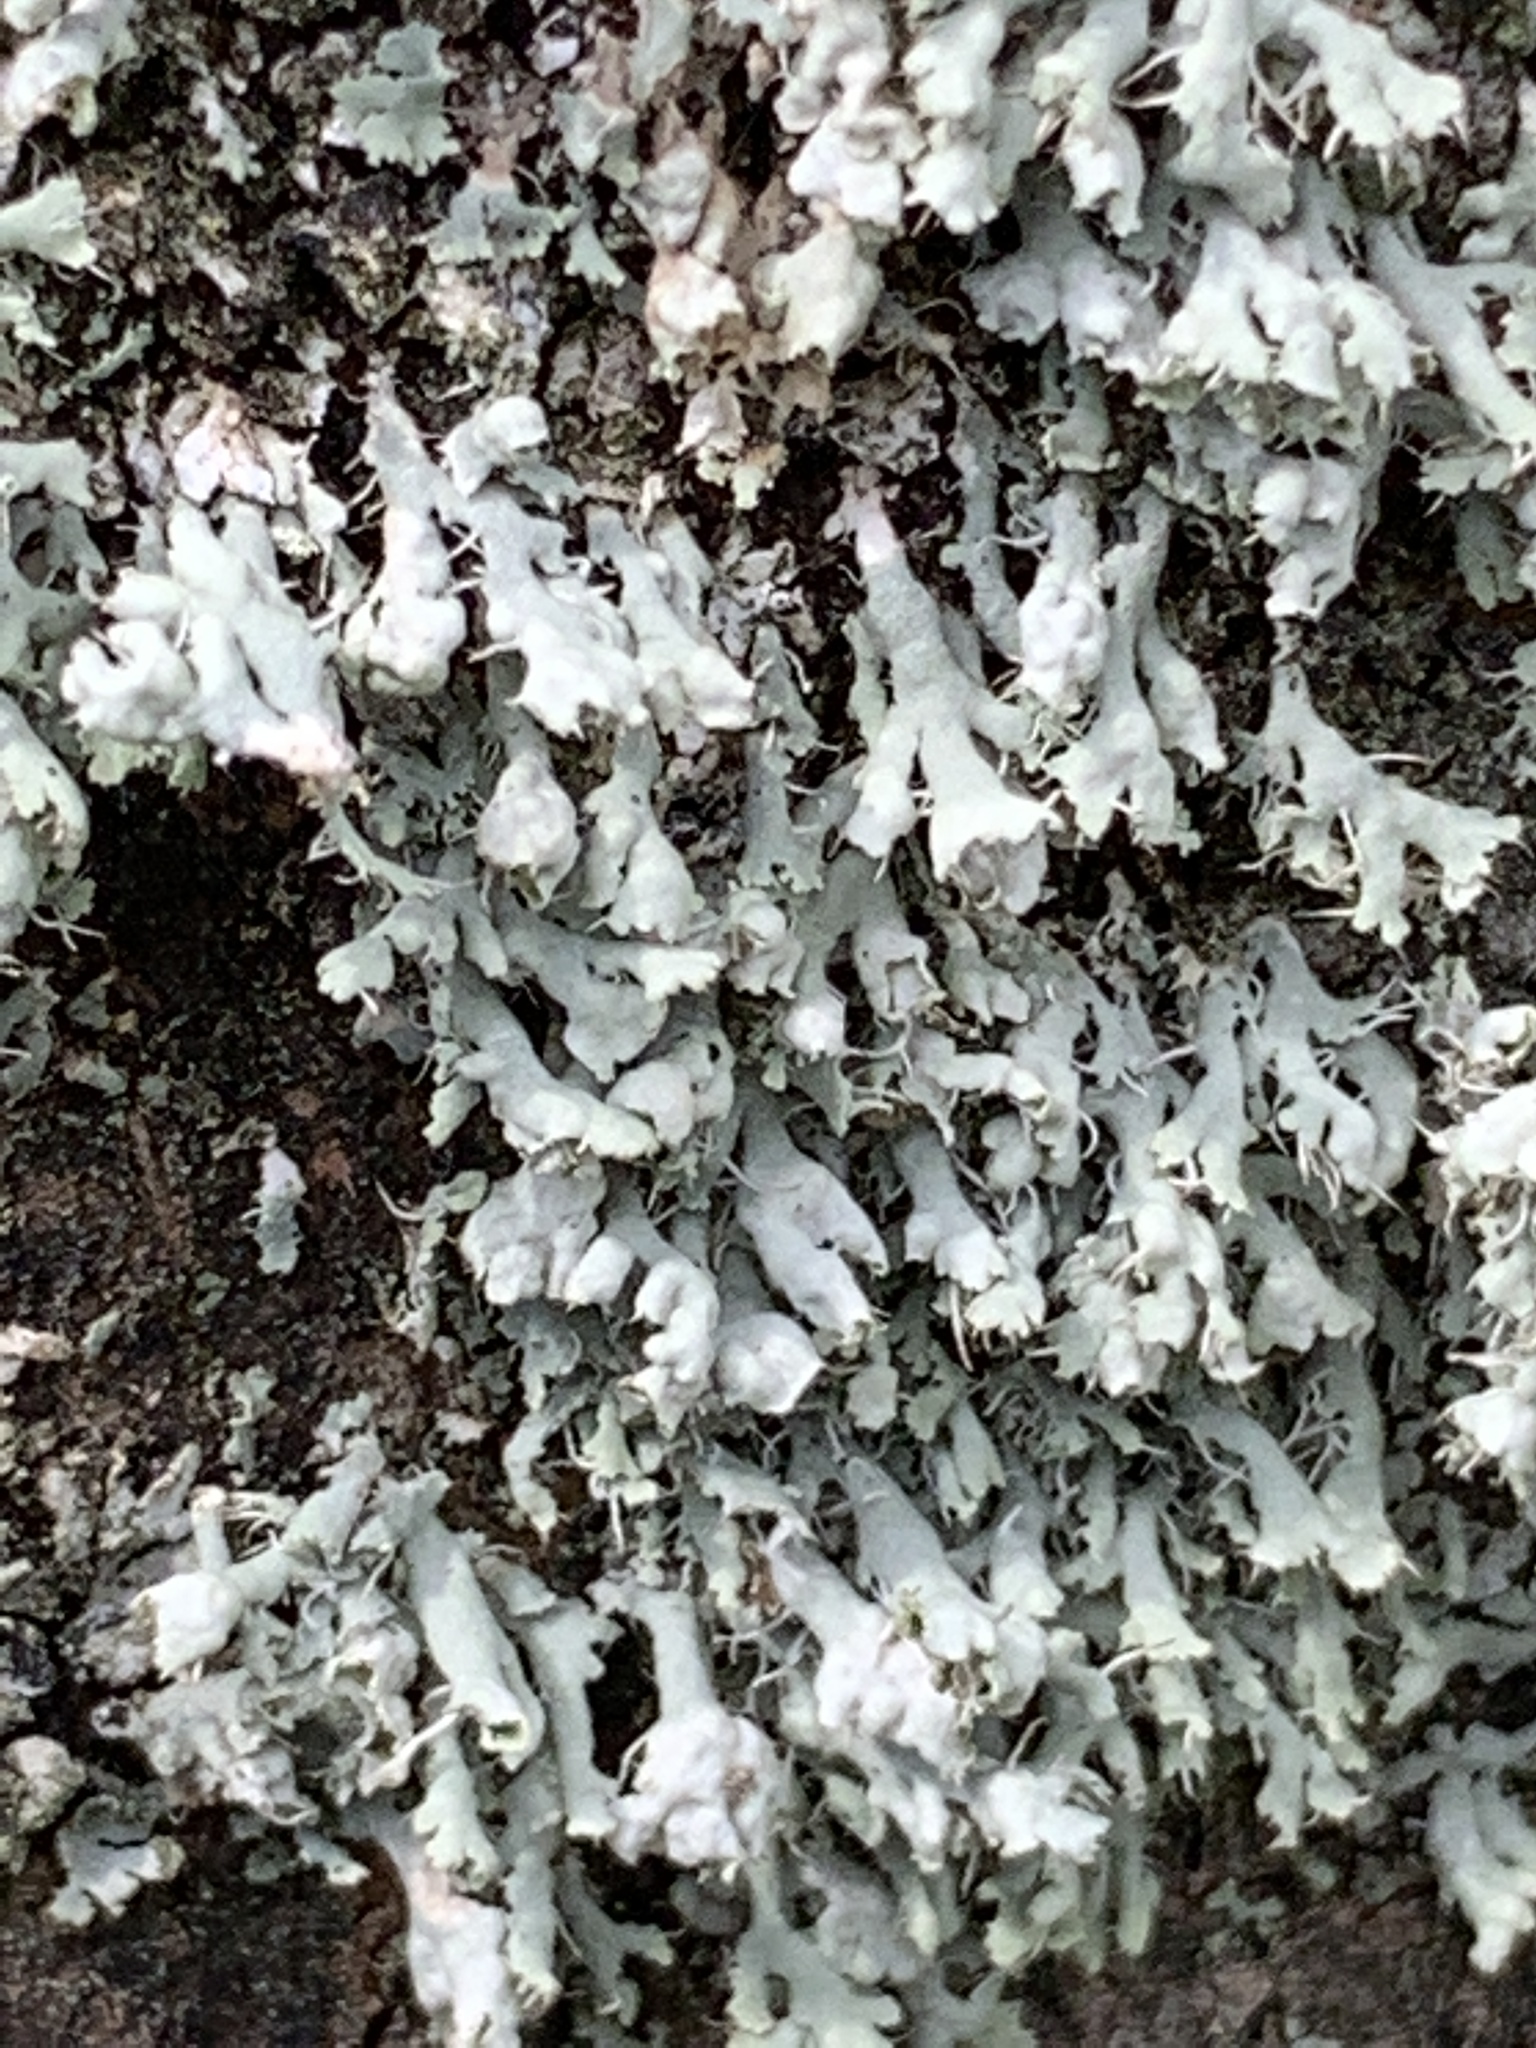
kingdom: Fungi
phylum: Ascomycota
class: Lecanoromycetes
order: Caliciales
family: Physciaceae
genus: Physcia
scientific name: Physcia adscendens
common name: Hooded rosette lichen
